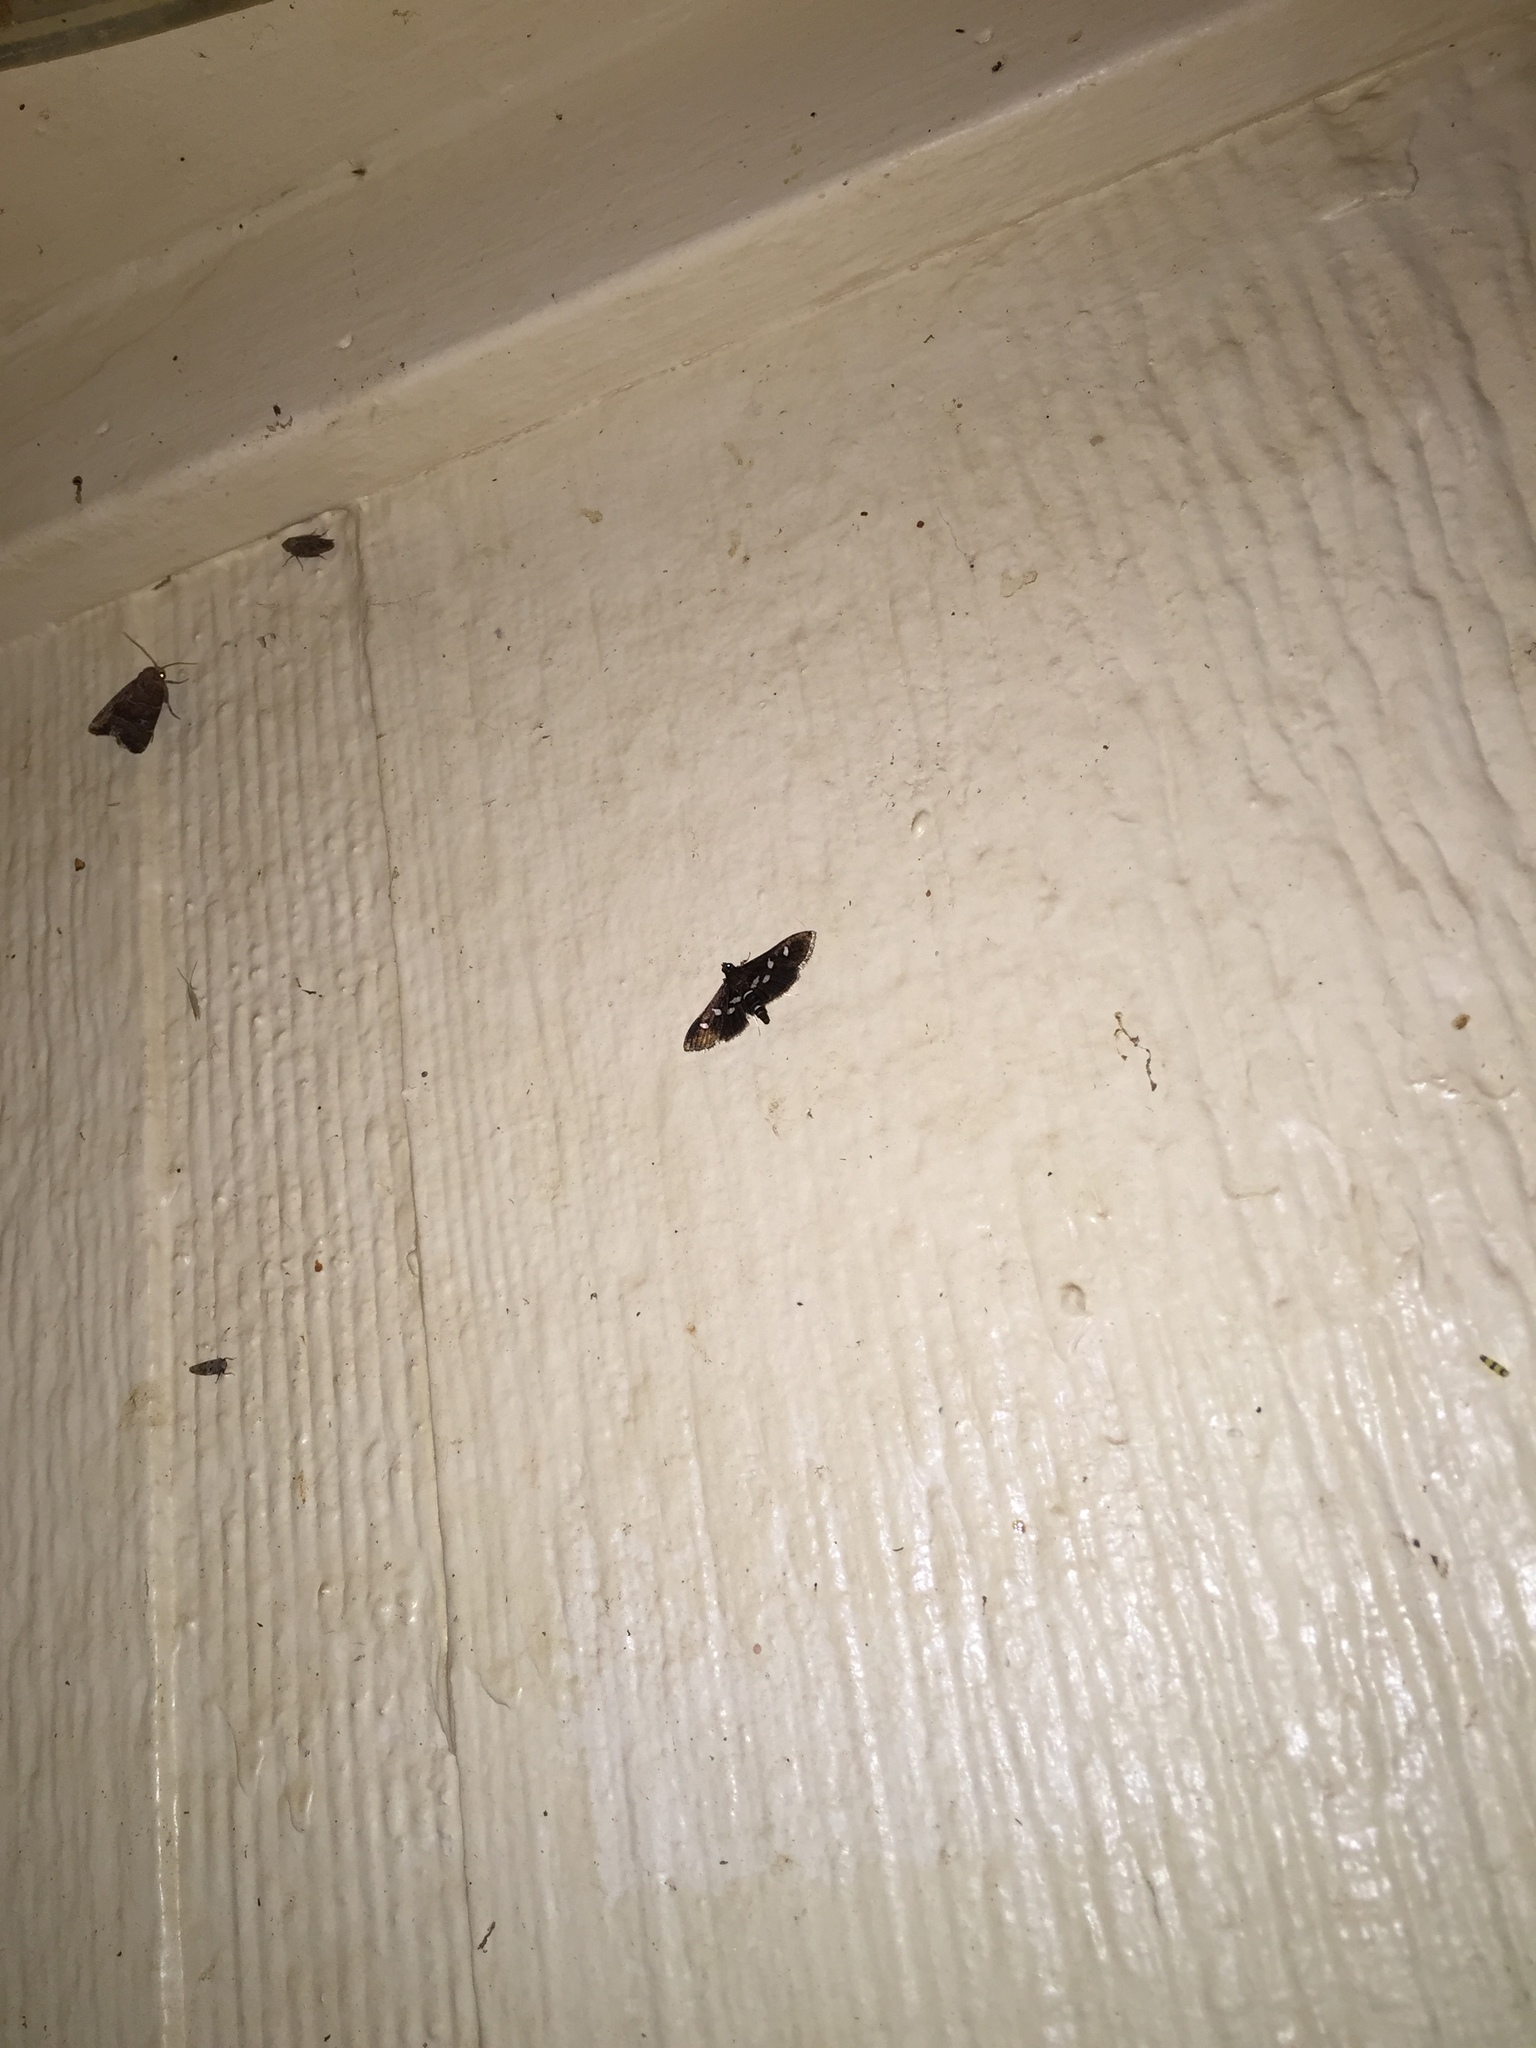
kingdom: Animalia
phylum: Arthropoda
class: Insecta
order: Lepidoptera
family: Crambidae
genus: Desmia
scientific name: Desmia funeralis
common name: Grape leaf folder moth
